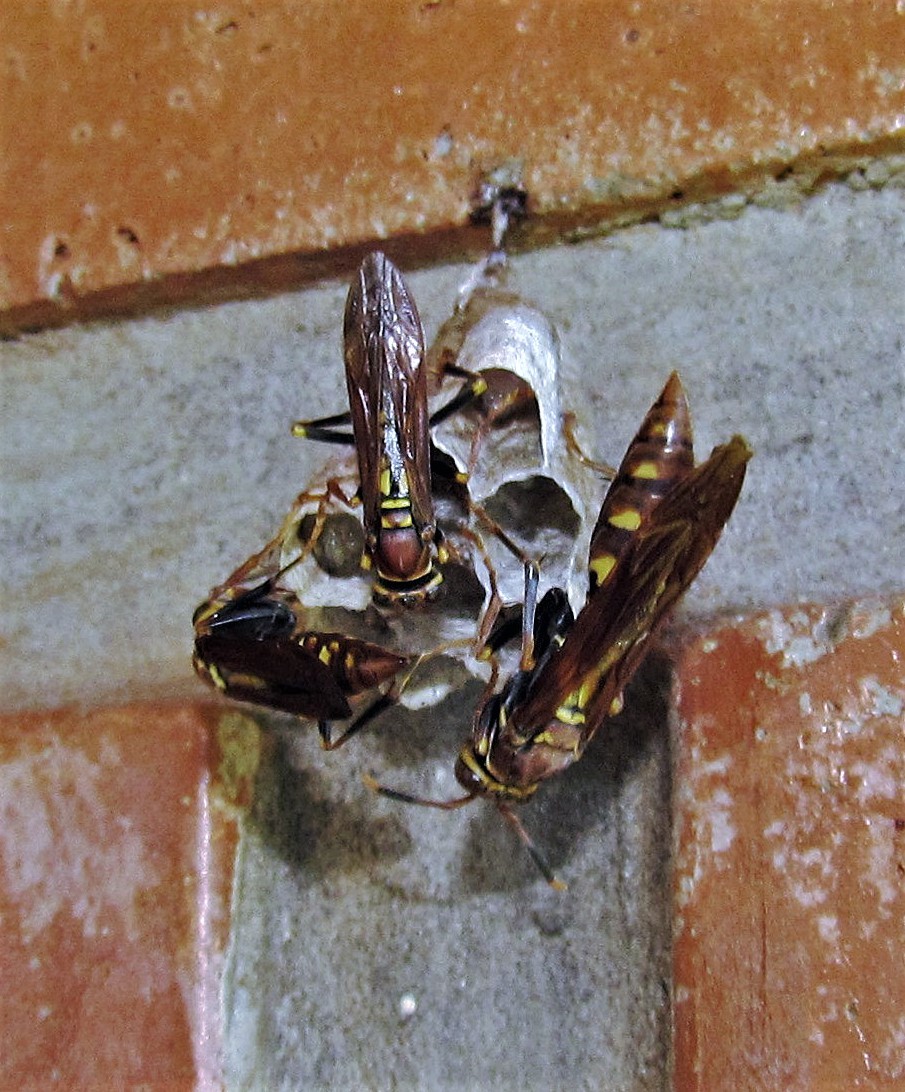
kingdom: Animalia
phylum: Arthropoda
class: Insecta
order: Hymenoptera
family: Eumenidae
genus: Polistes
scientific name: Polistes versicolor
